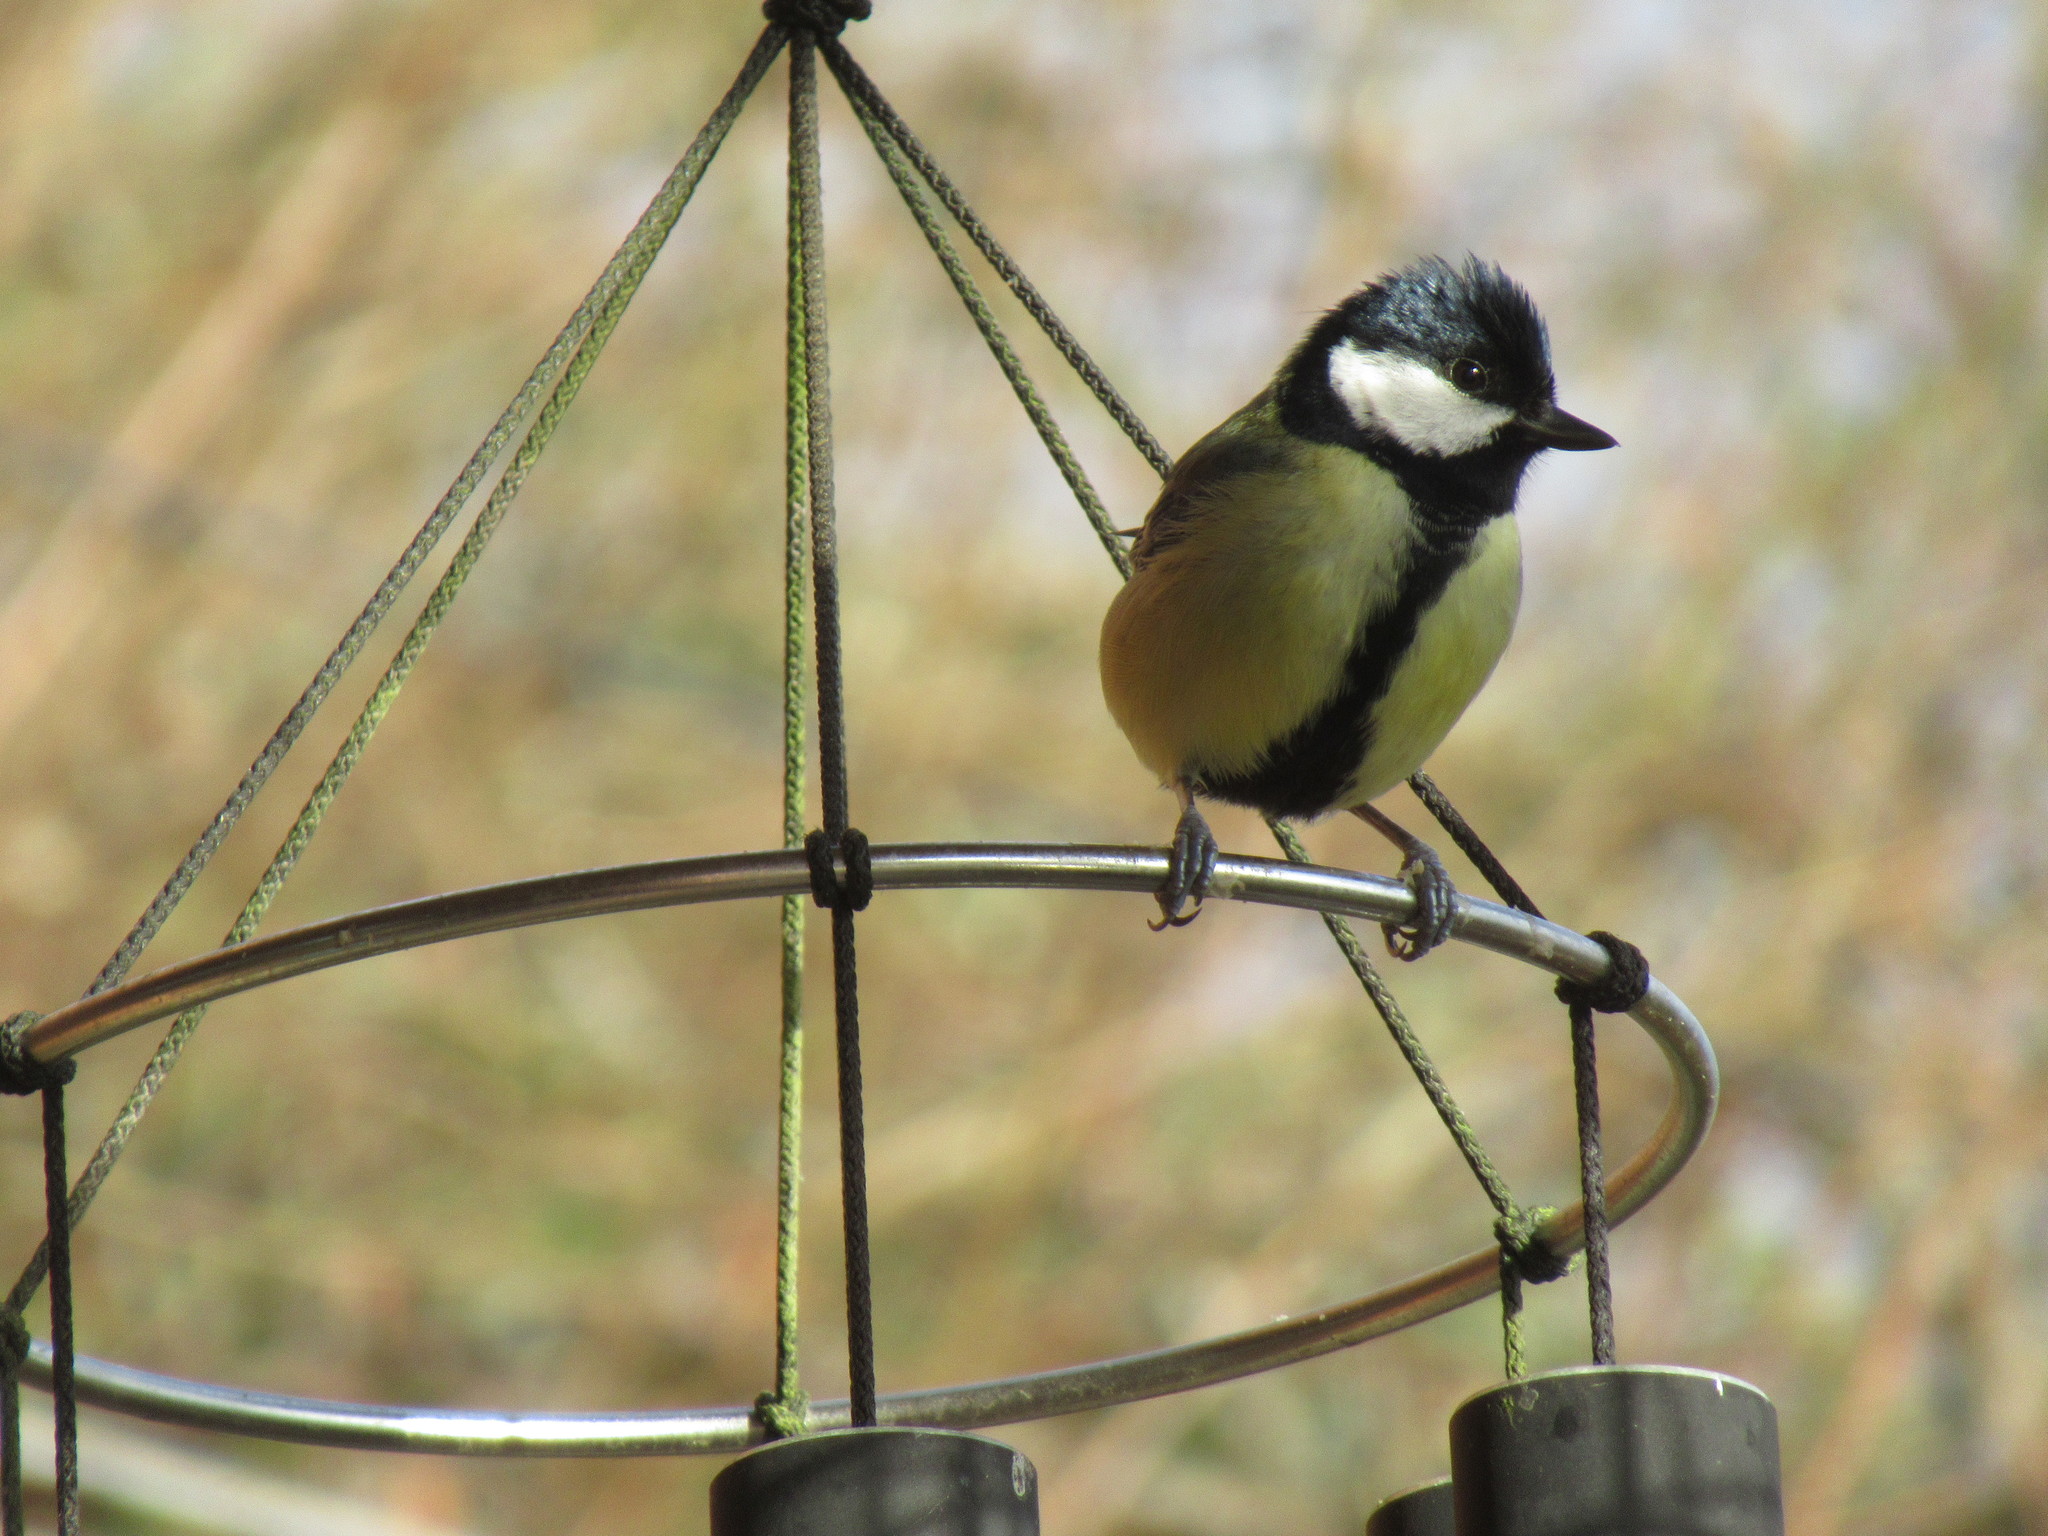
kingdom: Animalia
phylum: Chordata
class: Aves
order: Passeriformes
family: Paridae
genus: Parus
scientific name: Parus major
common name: Great tit
